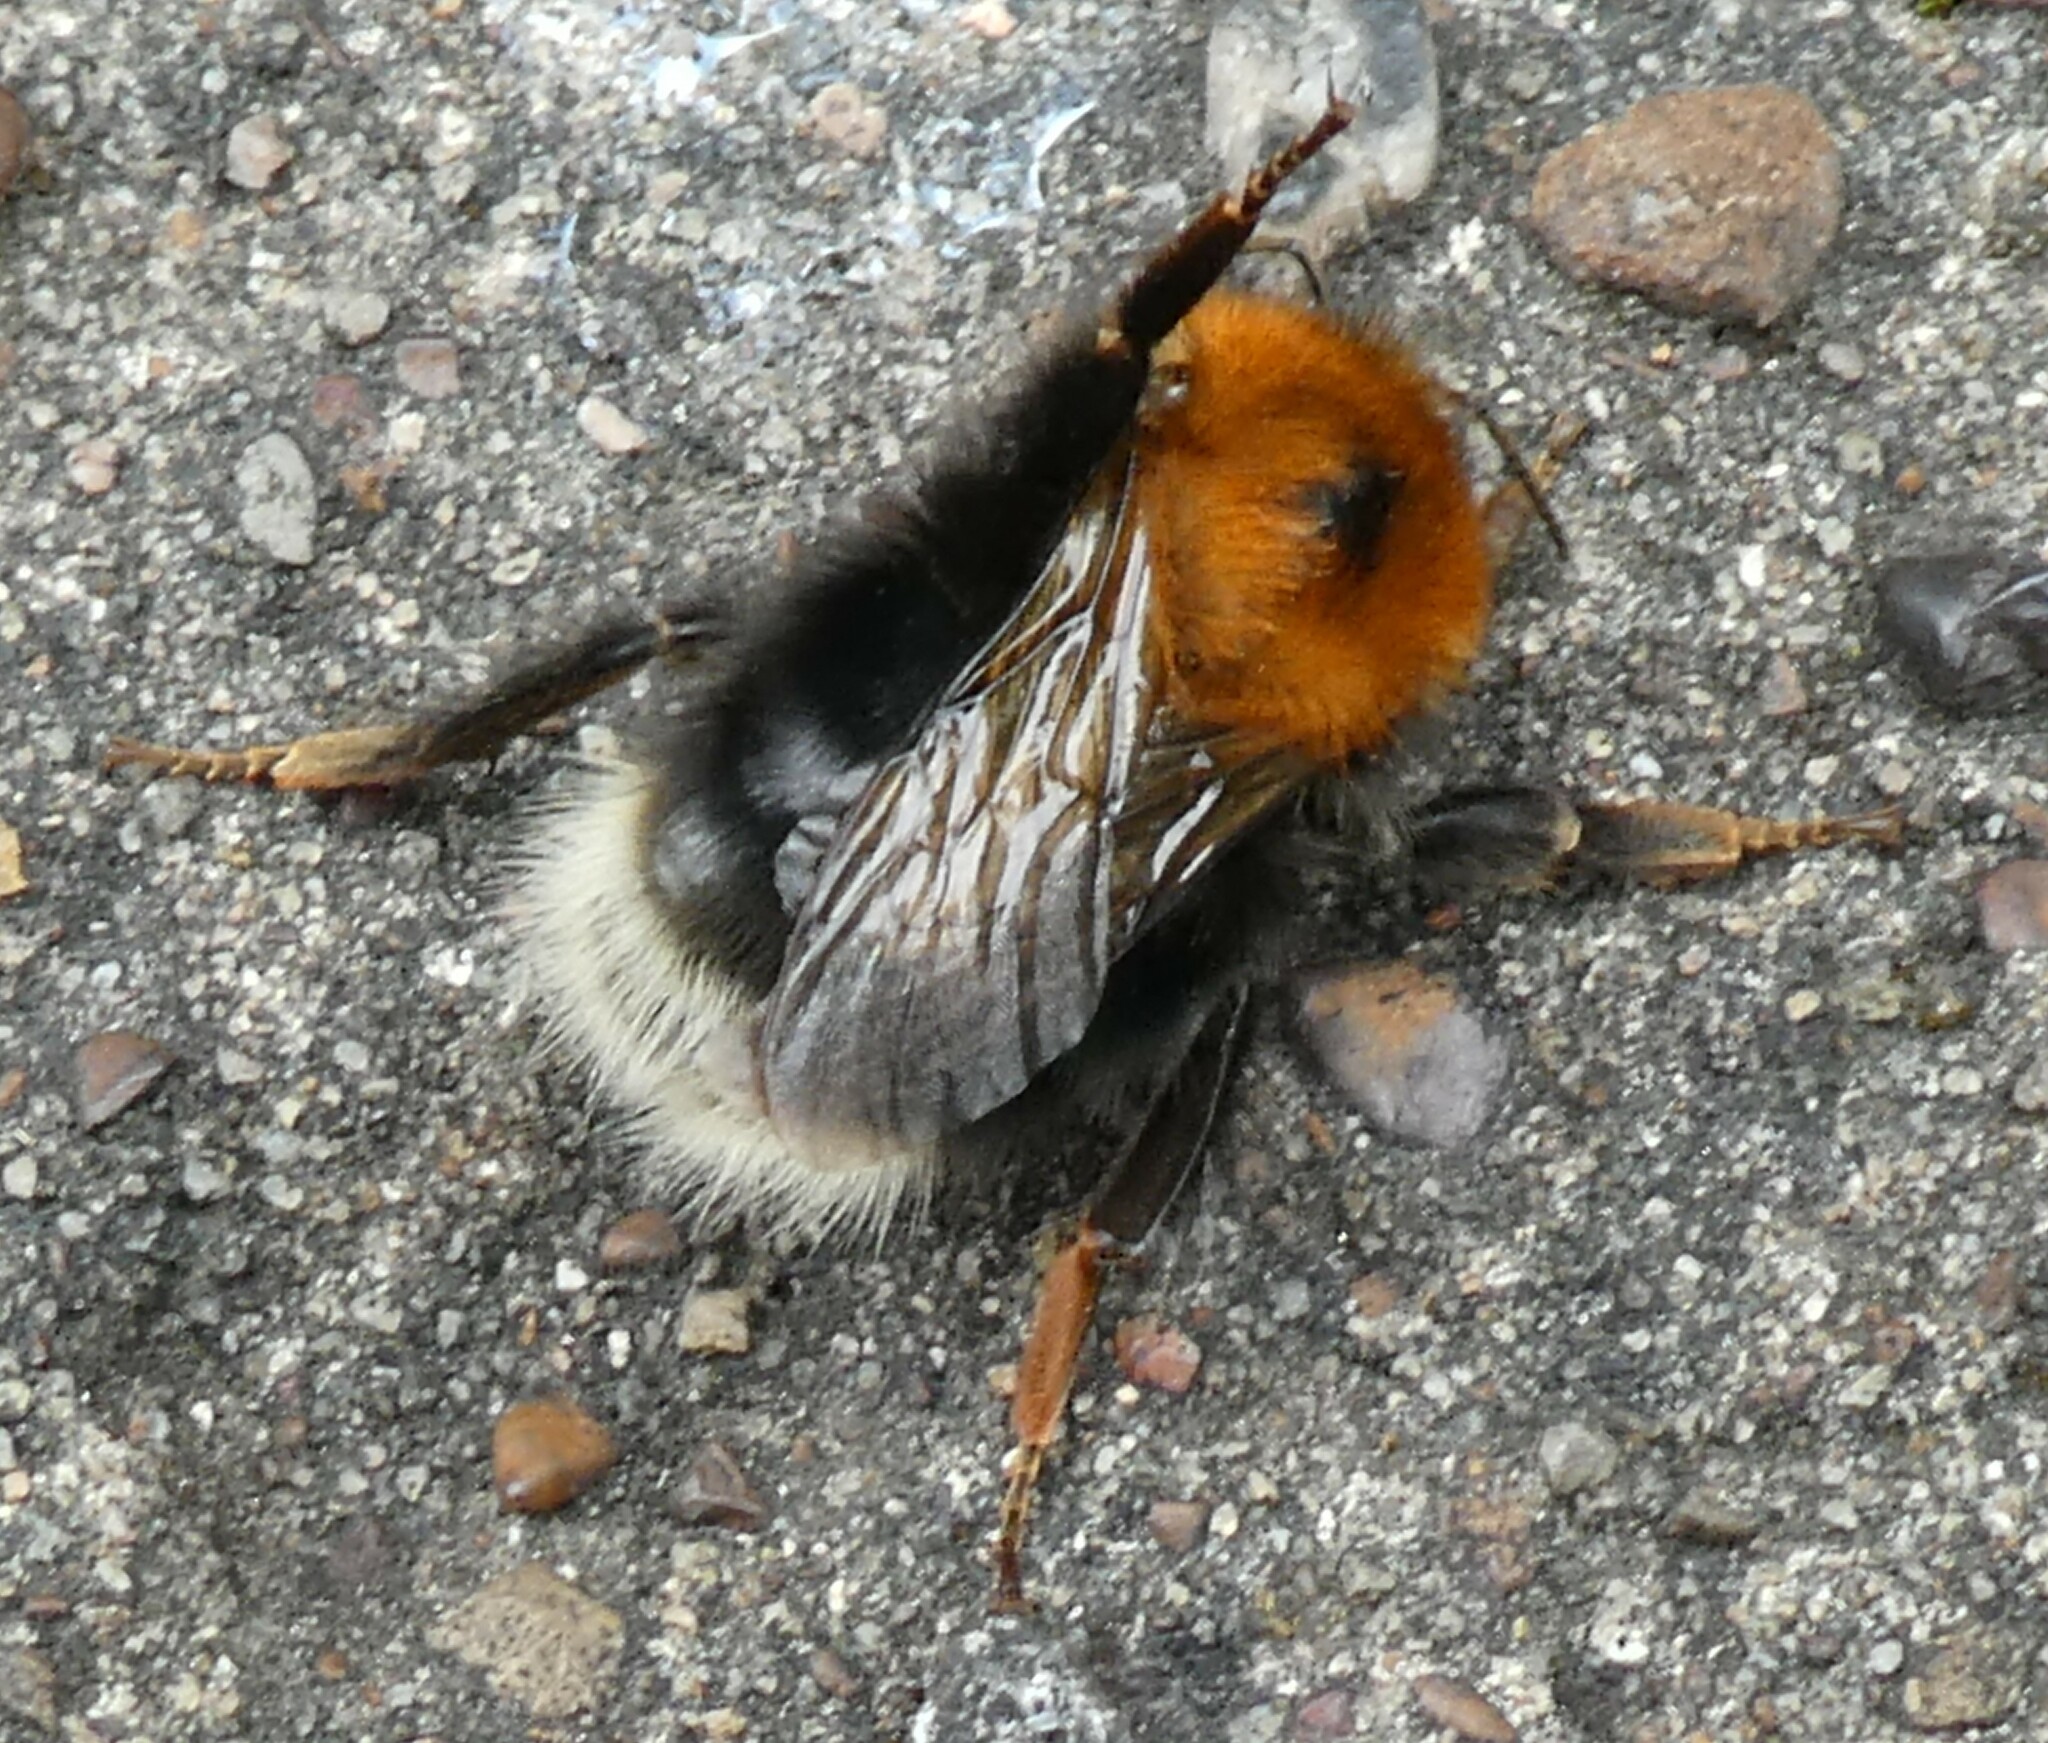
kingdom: Animalia
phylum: Arthropoda
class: Insecta
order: Hymenoptera
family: Apidae
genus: Bombus
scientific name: Bombus hypnorum
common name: New garden bumblebee
